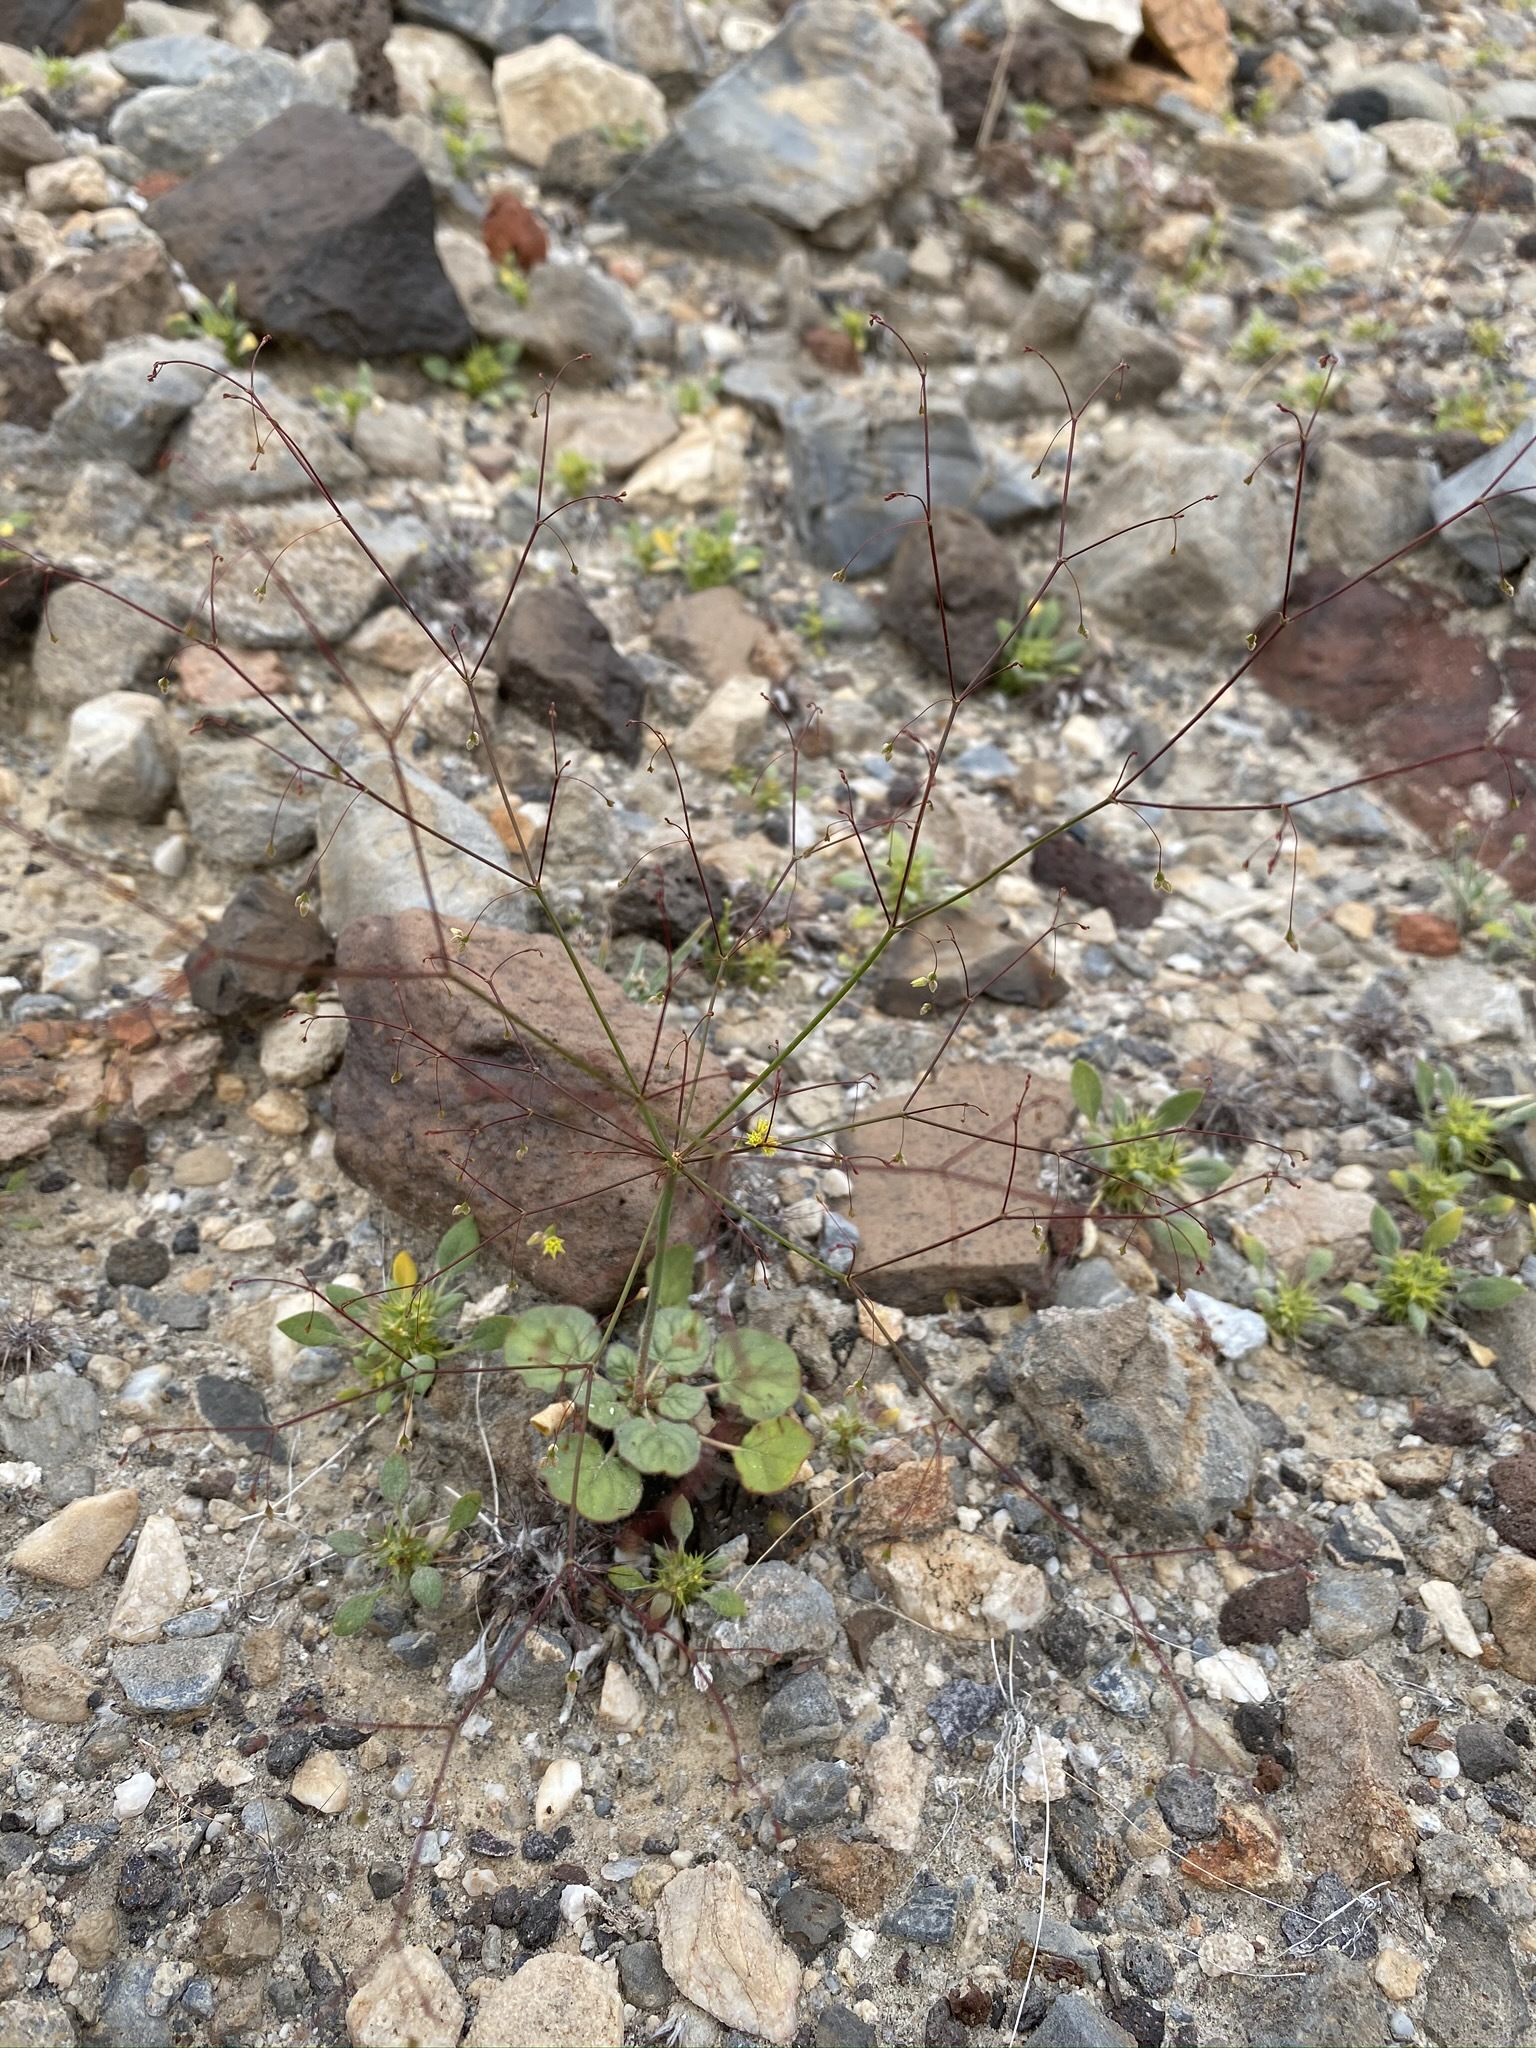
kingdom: Plantae
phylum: Tracheophyta
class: Magnoliopsida
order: Caryophyllales
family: Polygonaceae
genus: Eriogonum
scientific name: Eriogonum trichopes
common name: Little desert trumpet
